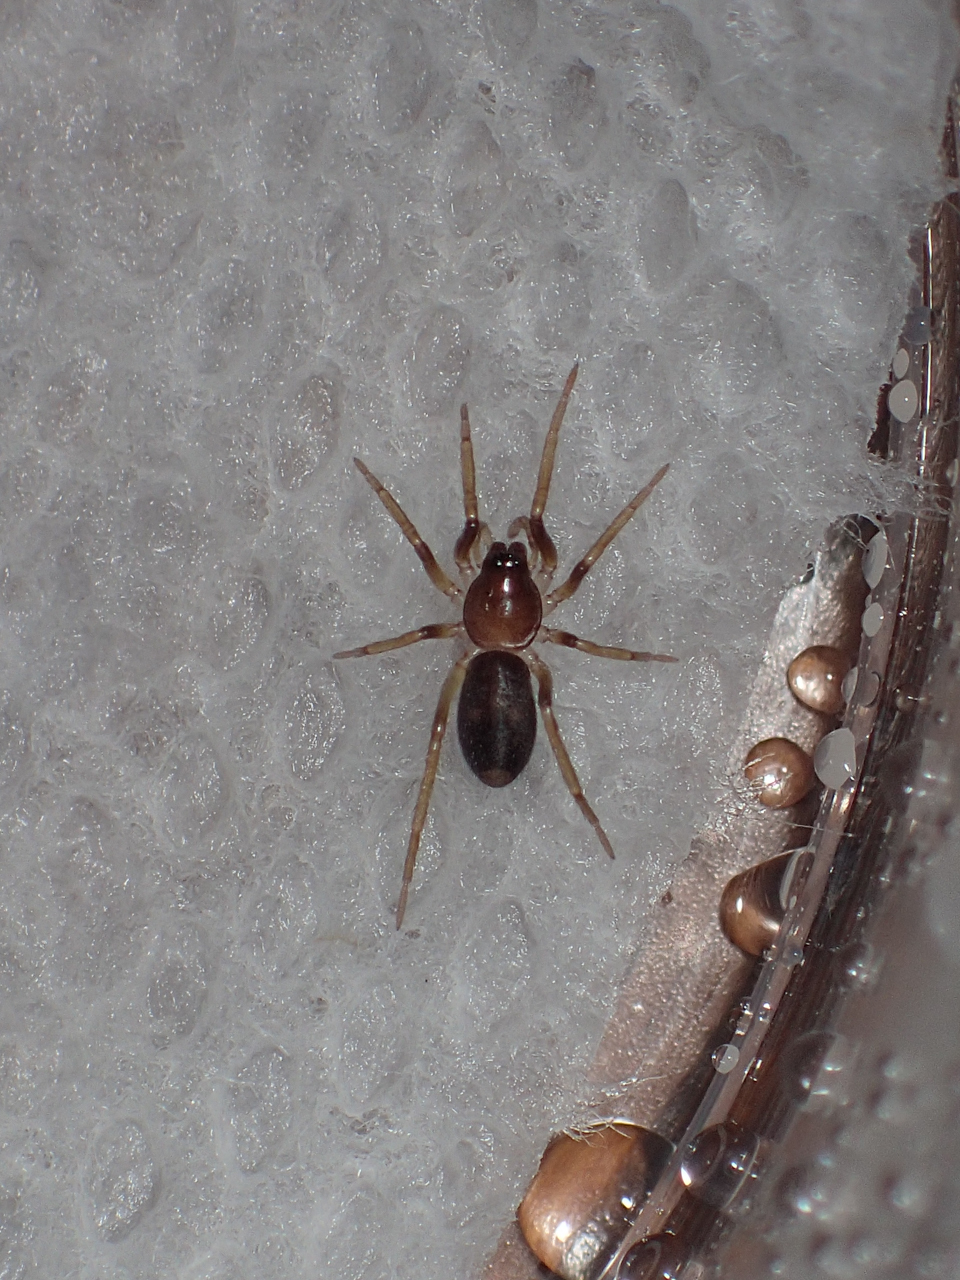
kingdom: Animalia
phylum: Arthropoda
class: Arachnida
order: Araneae
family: Corinnidae
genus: Falconina
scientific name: Falconina gracilis
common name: Antmimic spider
